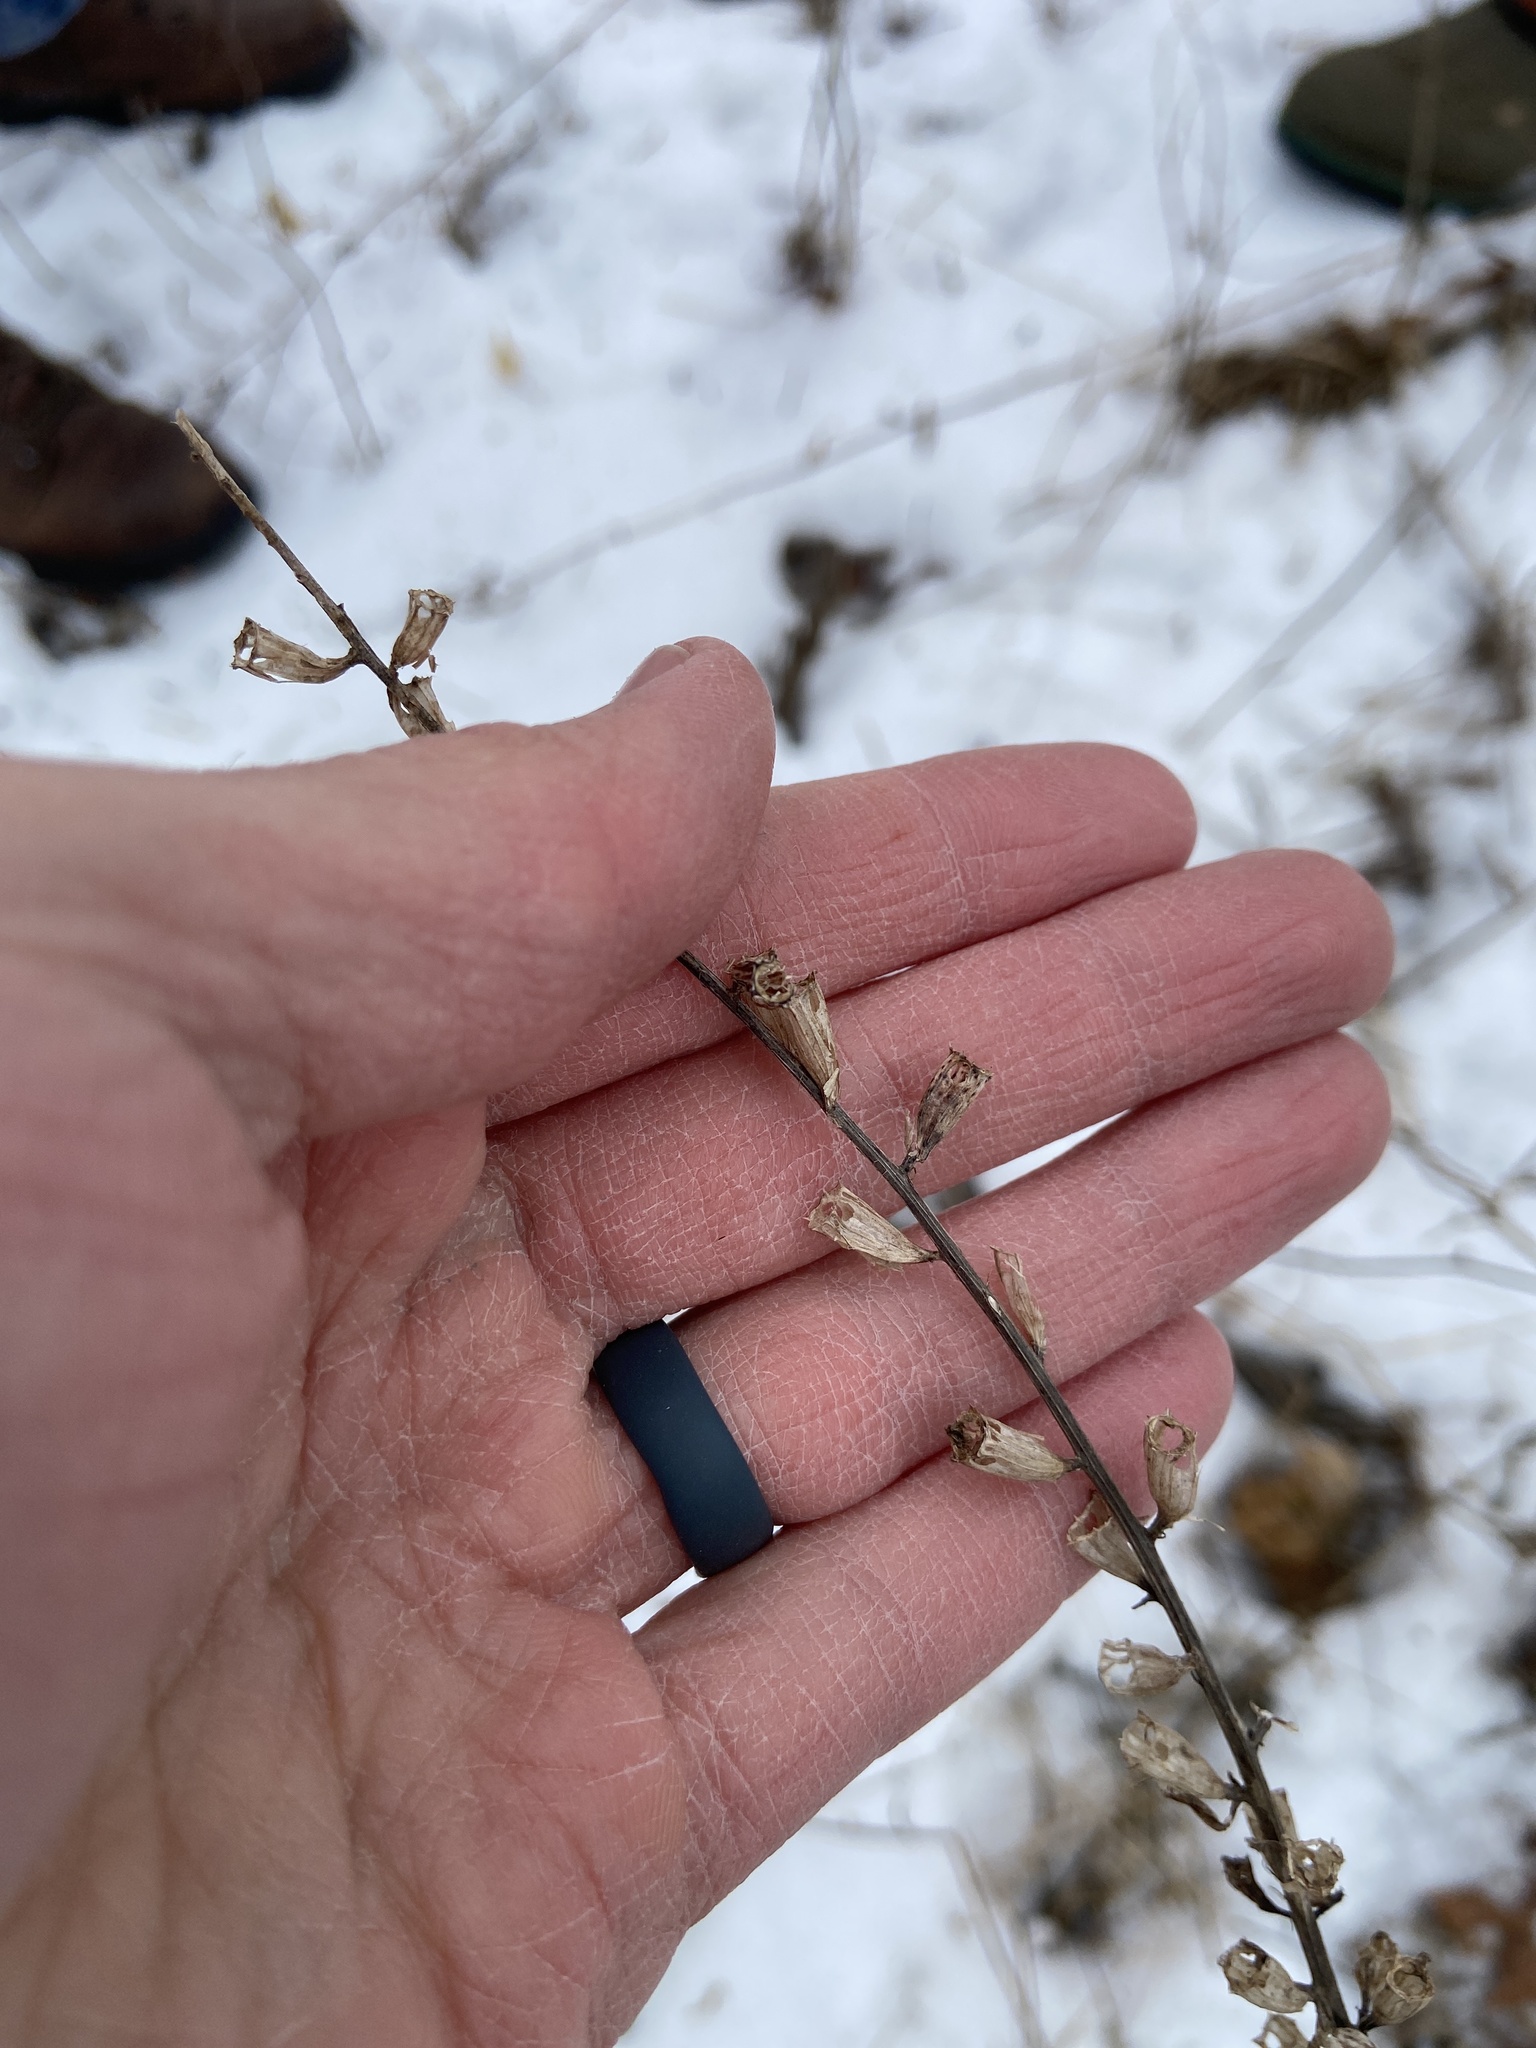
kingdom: Plantae
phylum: Tracheophyta
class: Magnoliopsida
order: Asterales
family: Campanulaceae
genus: Campanulastrum
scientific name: Campanulastrum americanum
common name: American bellflower
